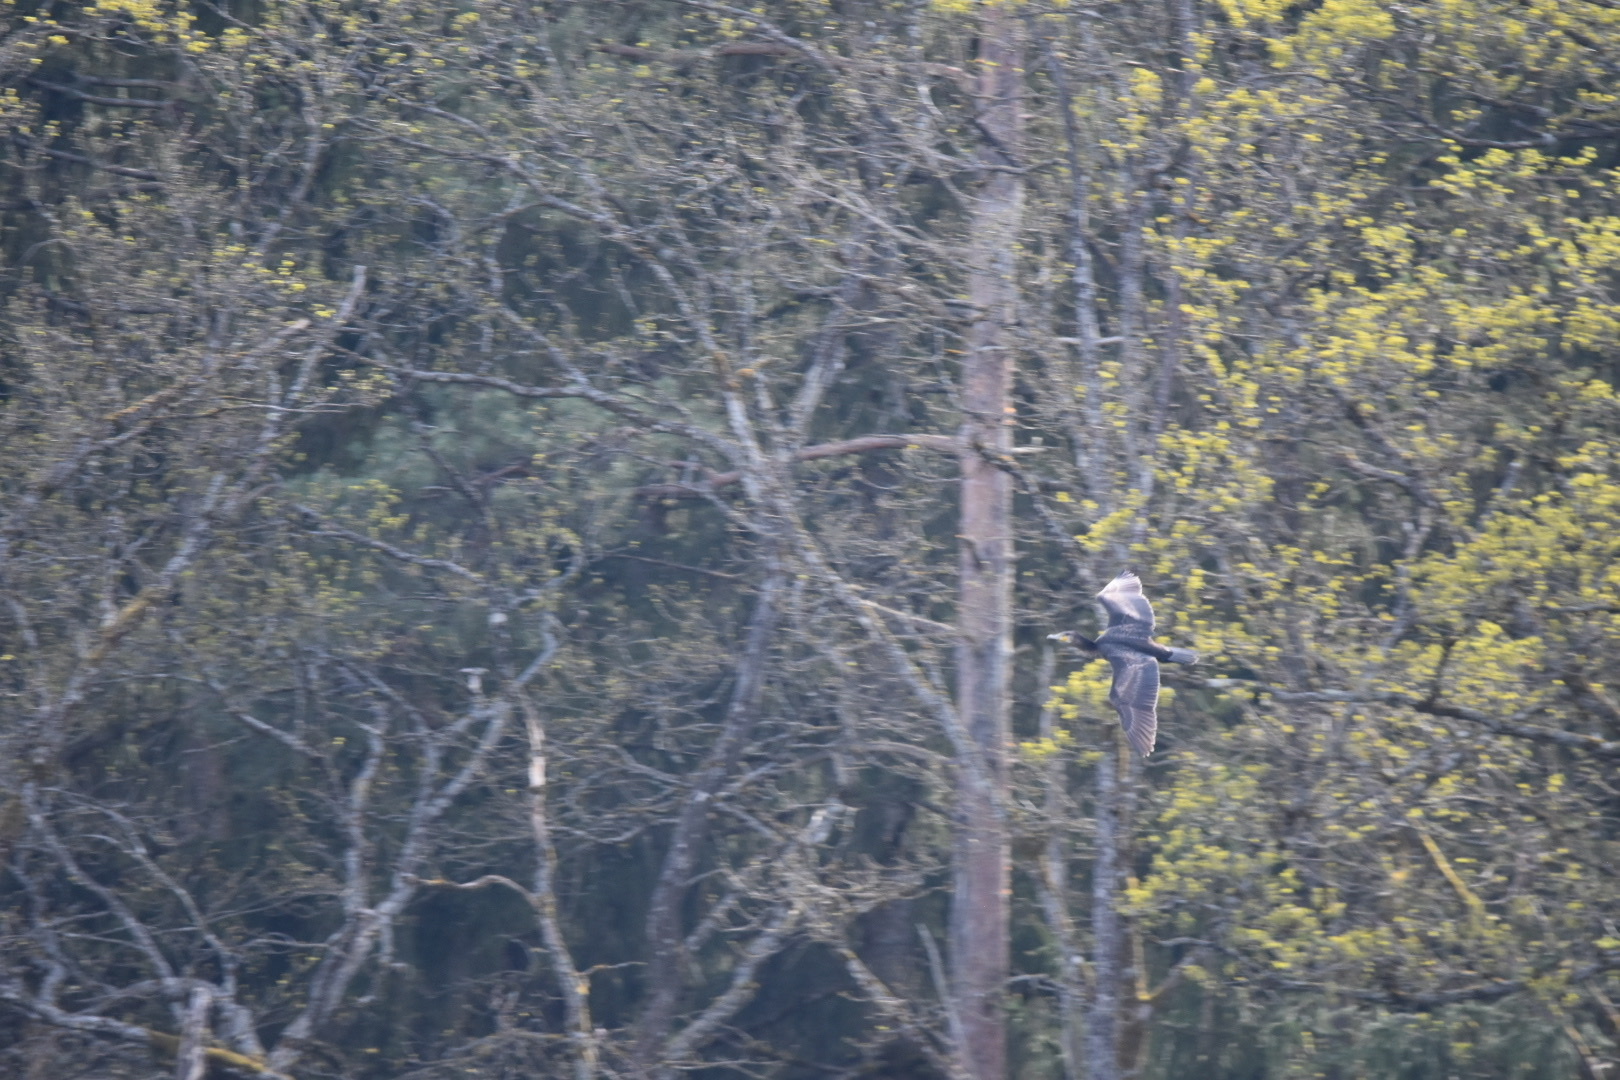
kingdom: Animalia
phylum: Chordata
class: Aves
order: Suliformes
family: Phalacrocoracidae
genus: Phalacrocorax
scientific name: Phalacrocorax carbo
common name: Great cormorant
